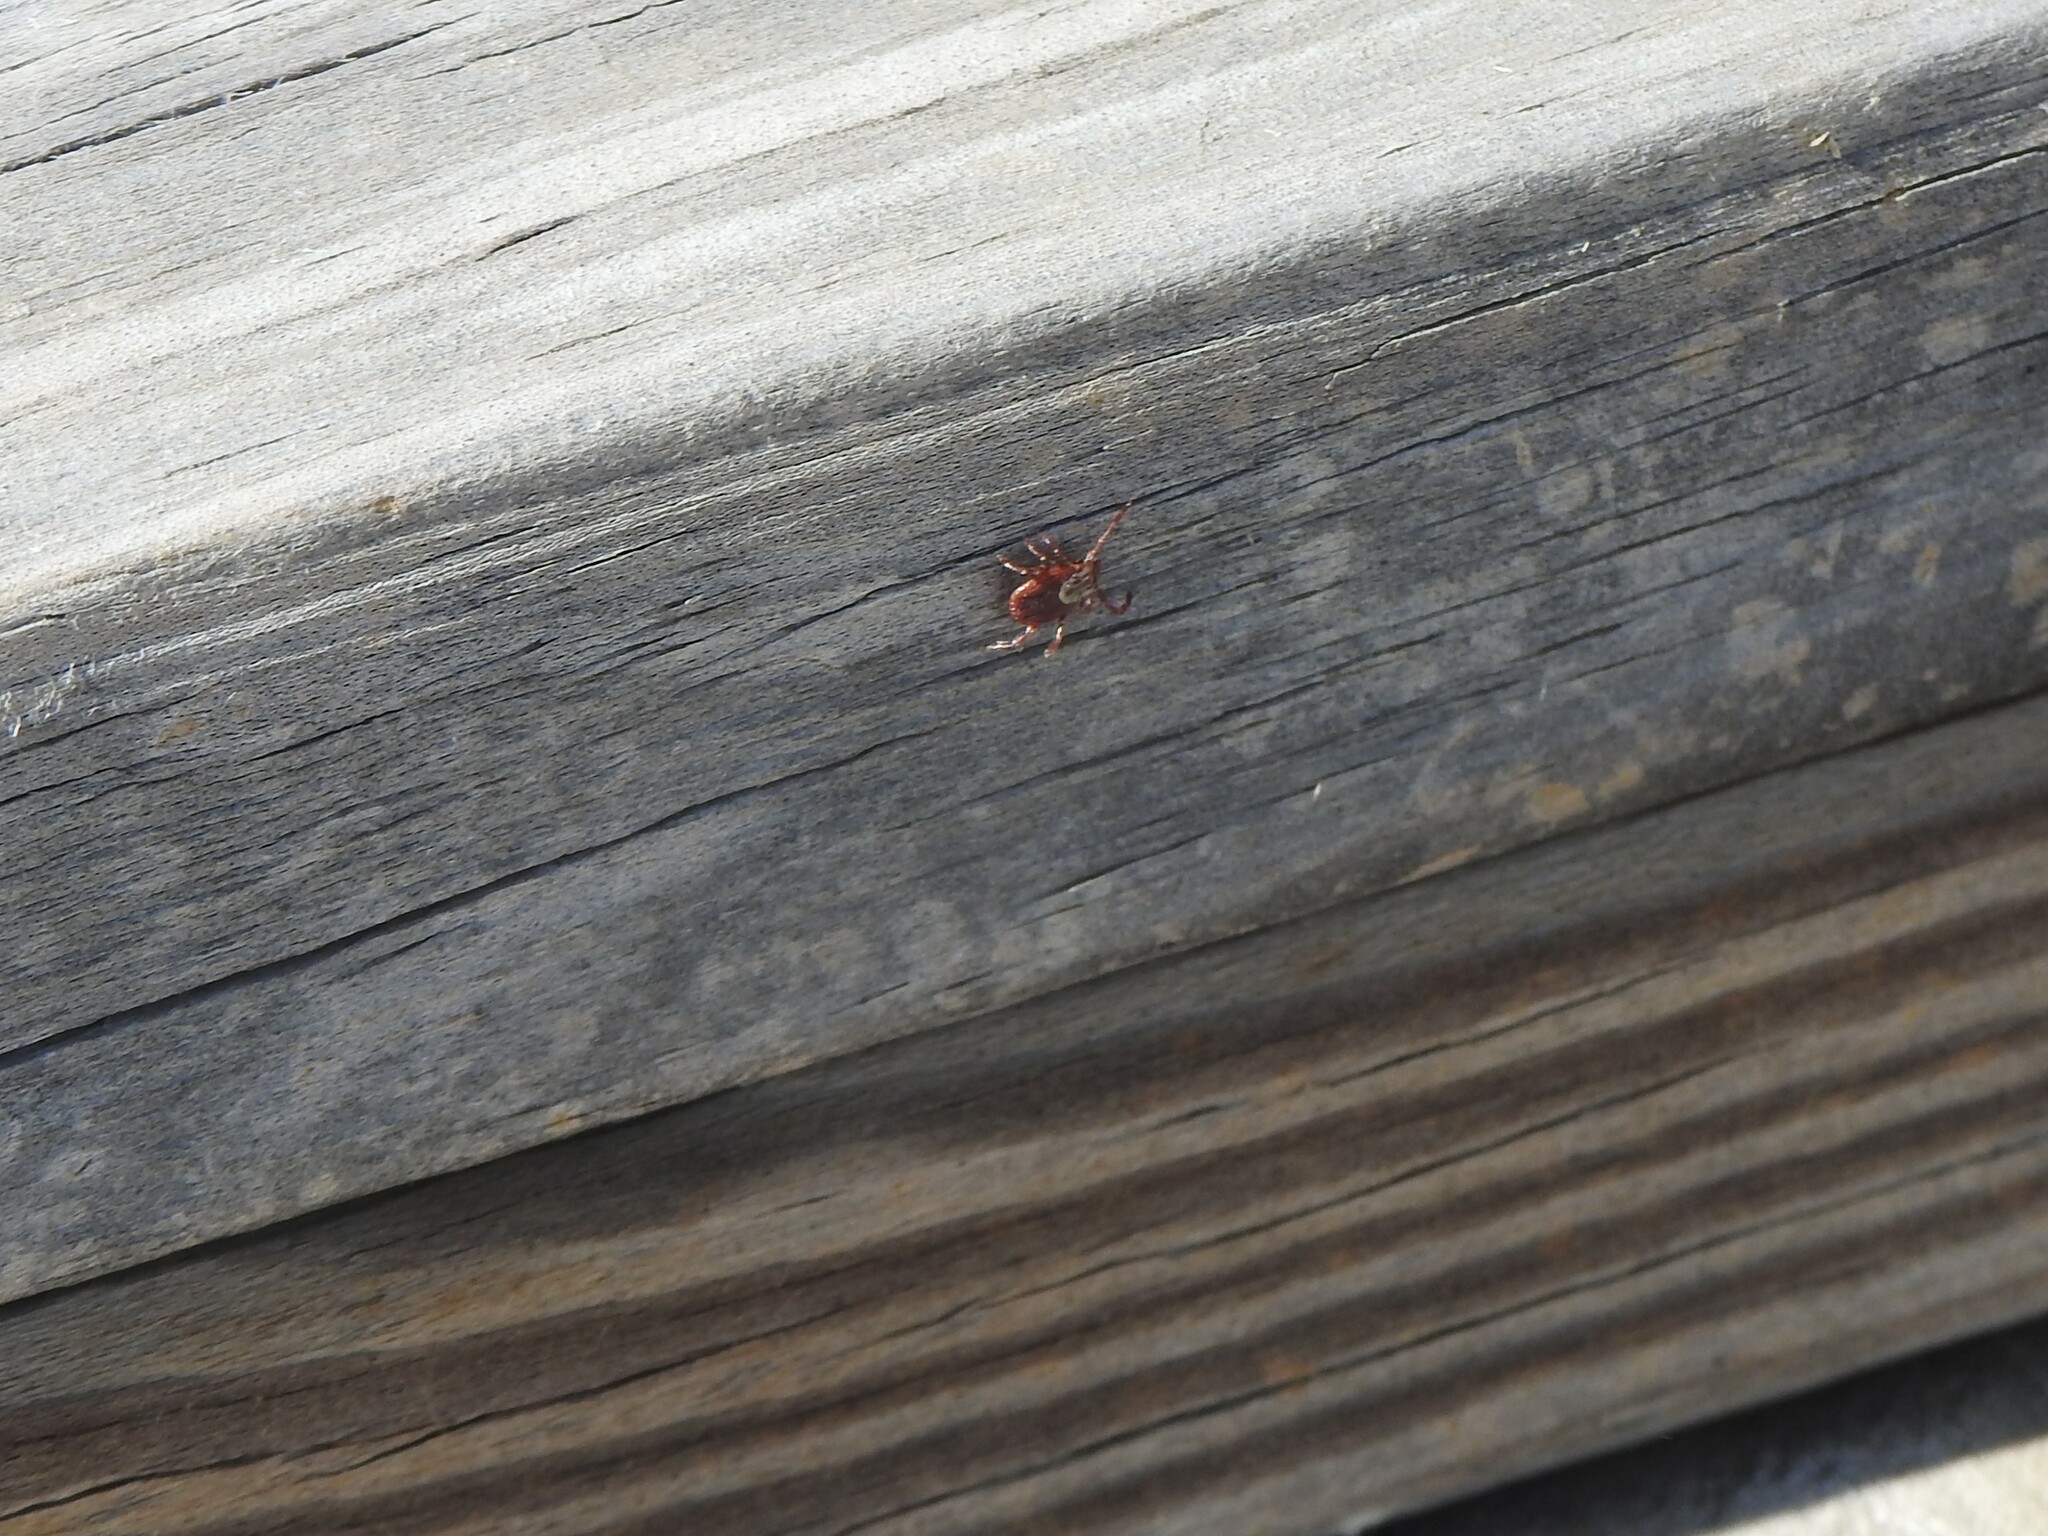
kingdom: Animalia
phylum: Arthropoda
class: Arachnida
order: Ixodida
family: Ixodidae
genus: Dermacentor
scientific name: Dermacentor variabilis
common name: American dog tick
